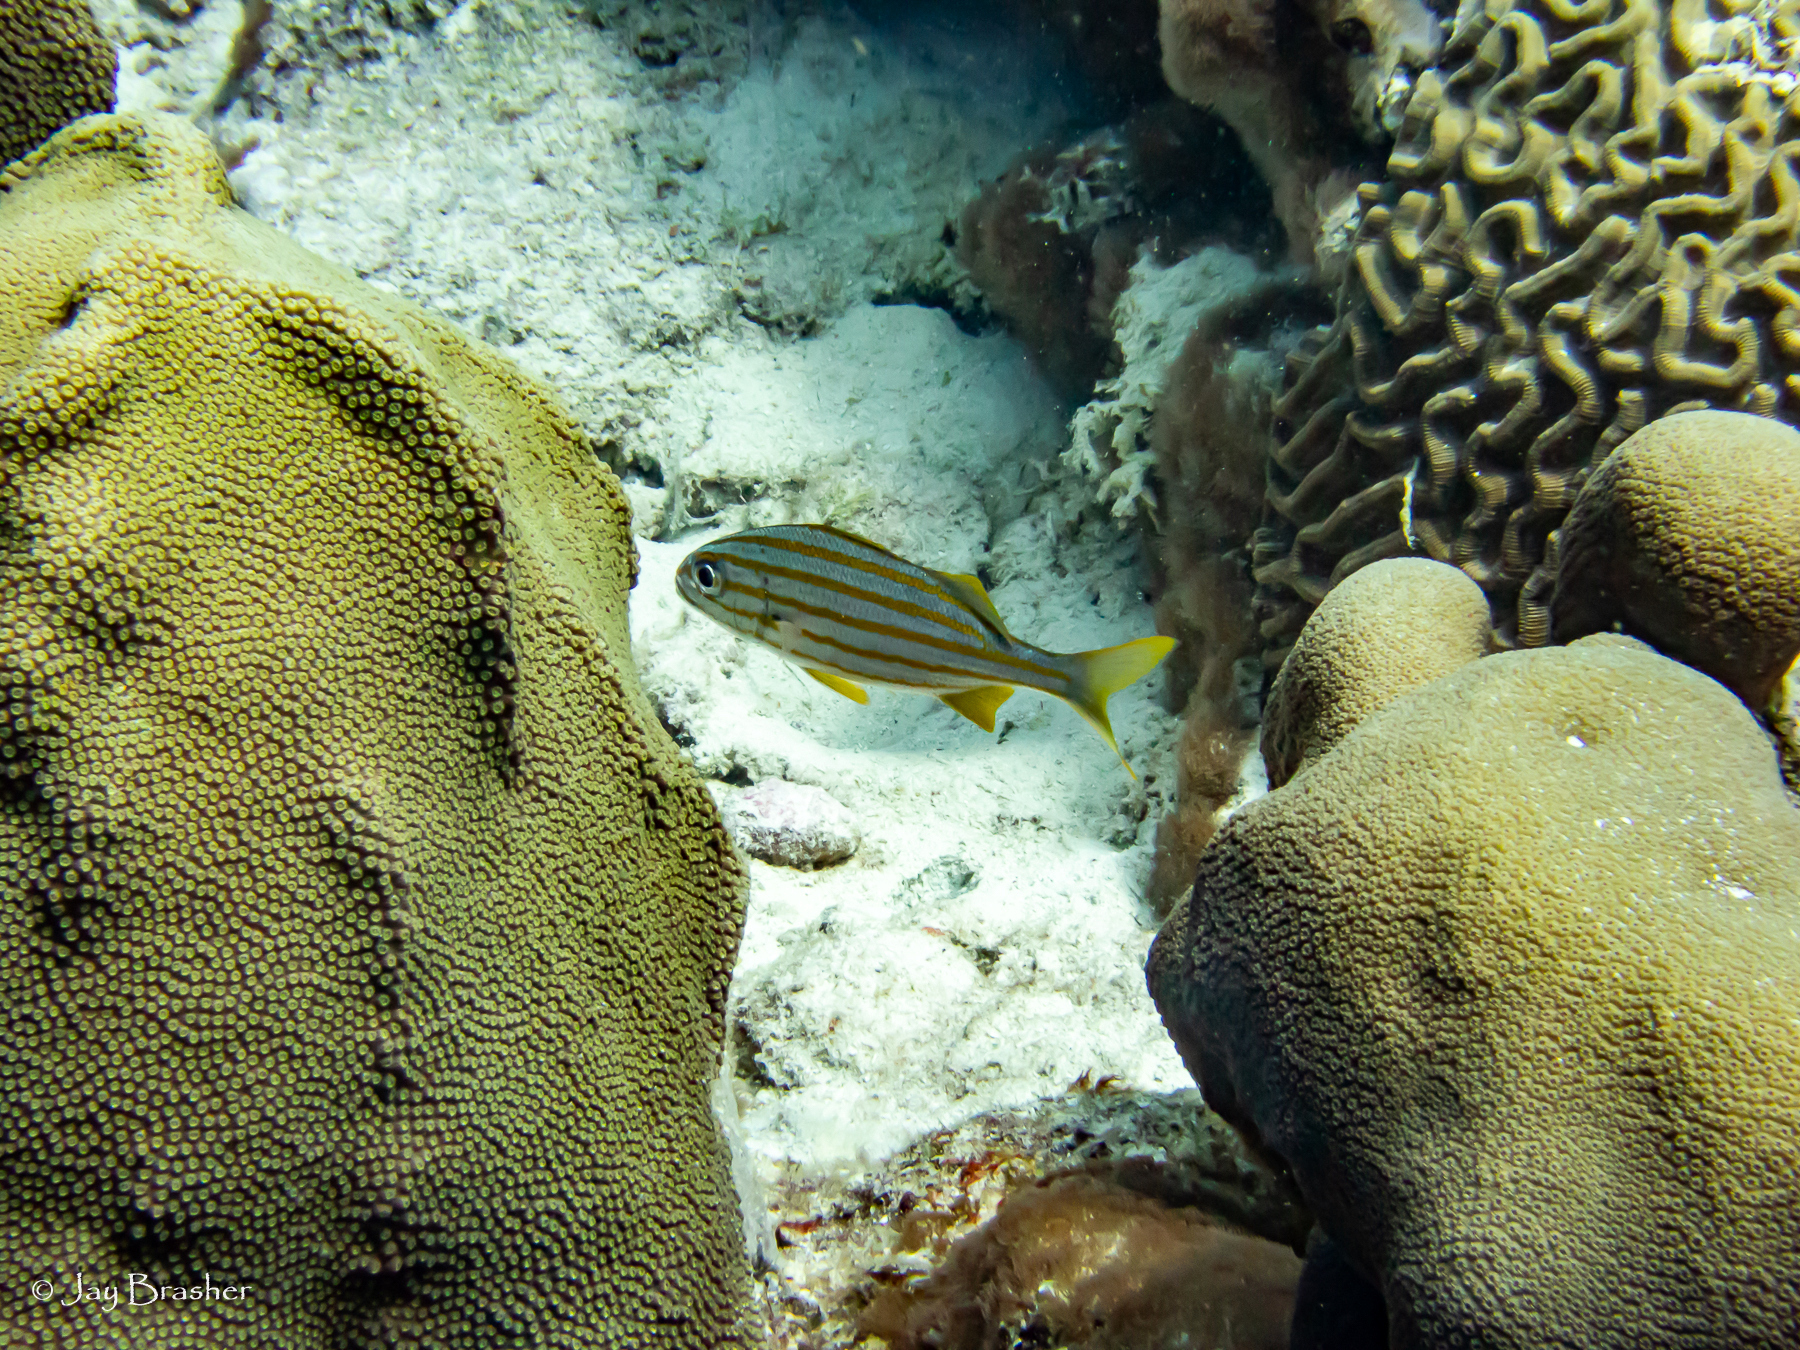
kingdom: Animalia
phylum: Chordata
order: Perciformes
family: Haemulidae
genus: Haemulon
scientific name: Haemulon chrysargyreum
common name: Smallmouth grunt
